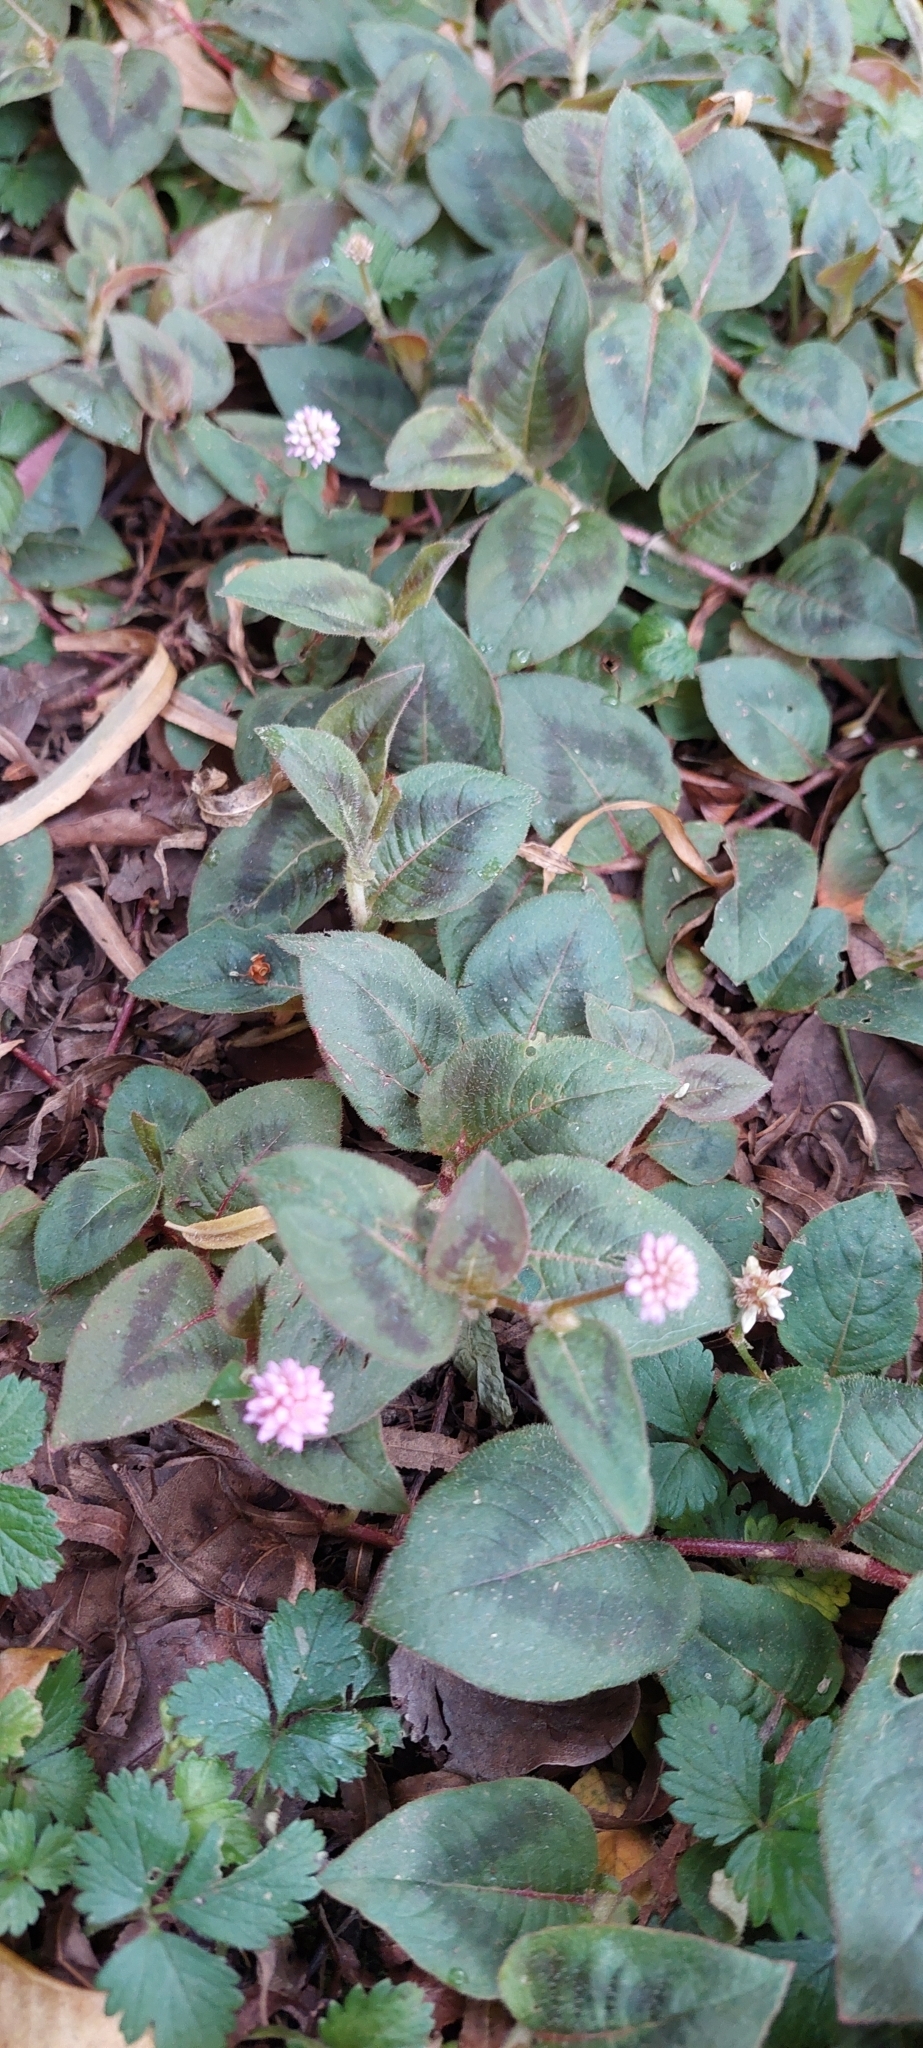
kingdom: Plantae
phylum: Tracheophyta
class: Magnoliopsida
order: Caryophyllales
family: Polygonaceae
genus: Persicaria
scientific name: Persicaria capitata
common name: Pinkhead smartweed
